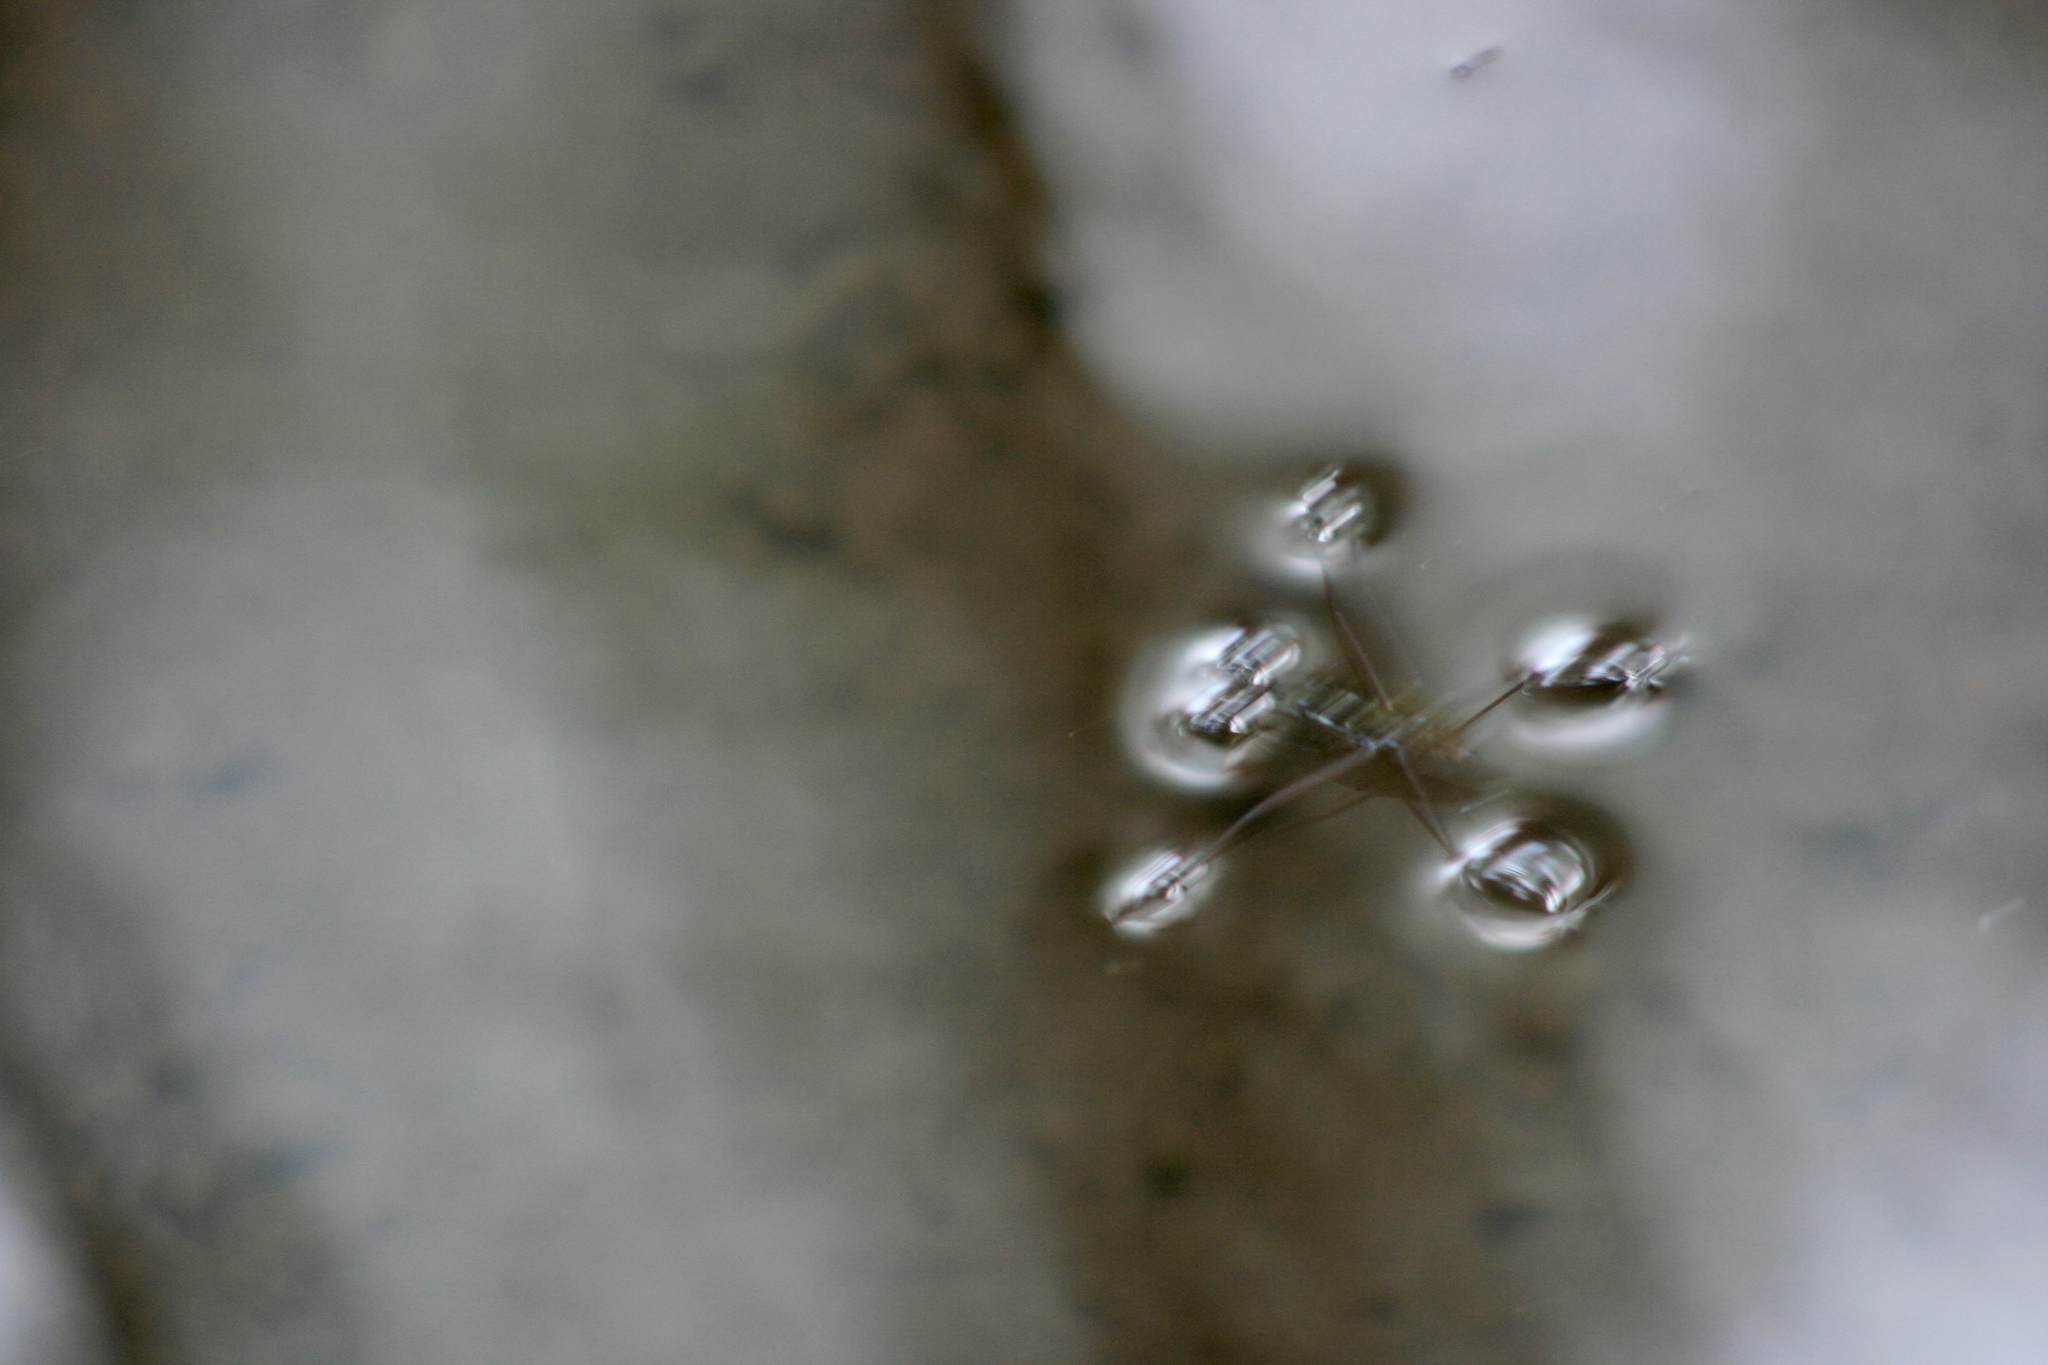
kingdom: Animalia
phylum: Arthropoda
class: Insecta
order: Hemiptera
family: Gerridae
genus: Aquarius
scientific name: Aquarius remigis
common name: Common water strider
